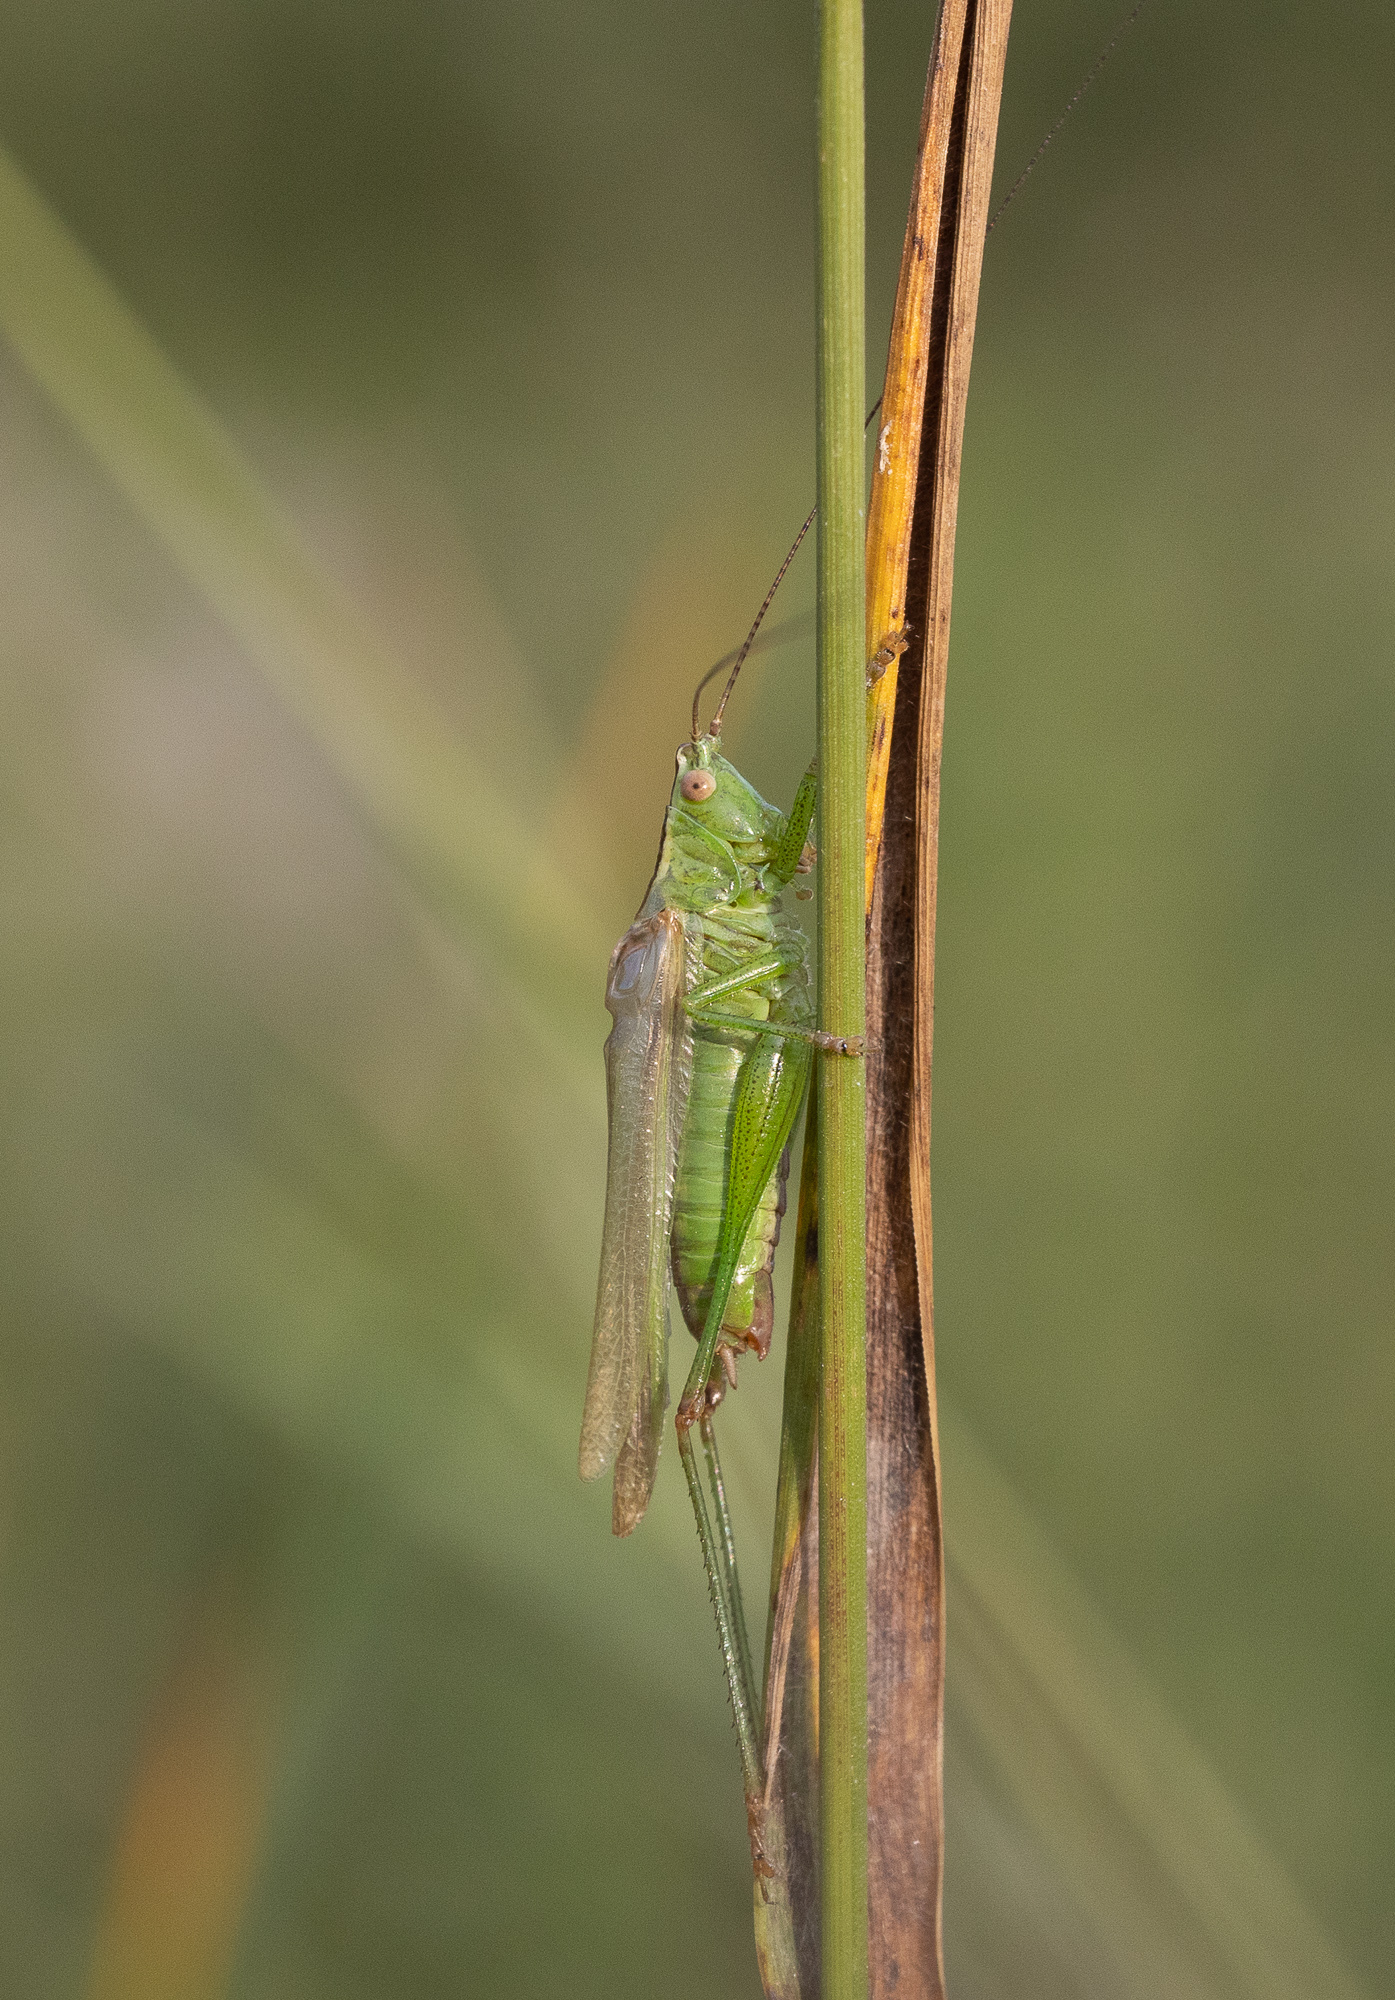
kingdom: Animalia
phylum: Arthropoda
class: Insecta
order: Orthoptera
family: Tettigoniidae
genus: Conocephalus
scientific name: Conocephalus fuscus
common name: Long-winged conehead
